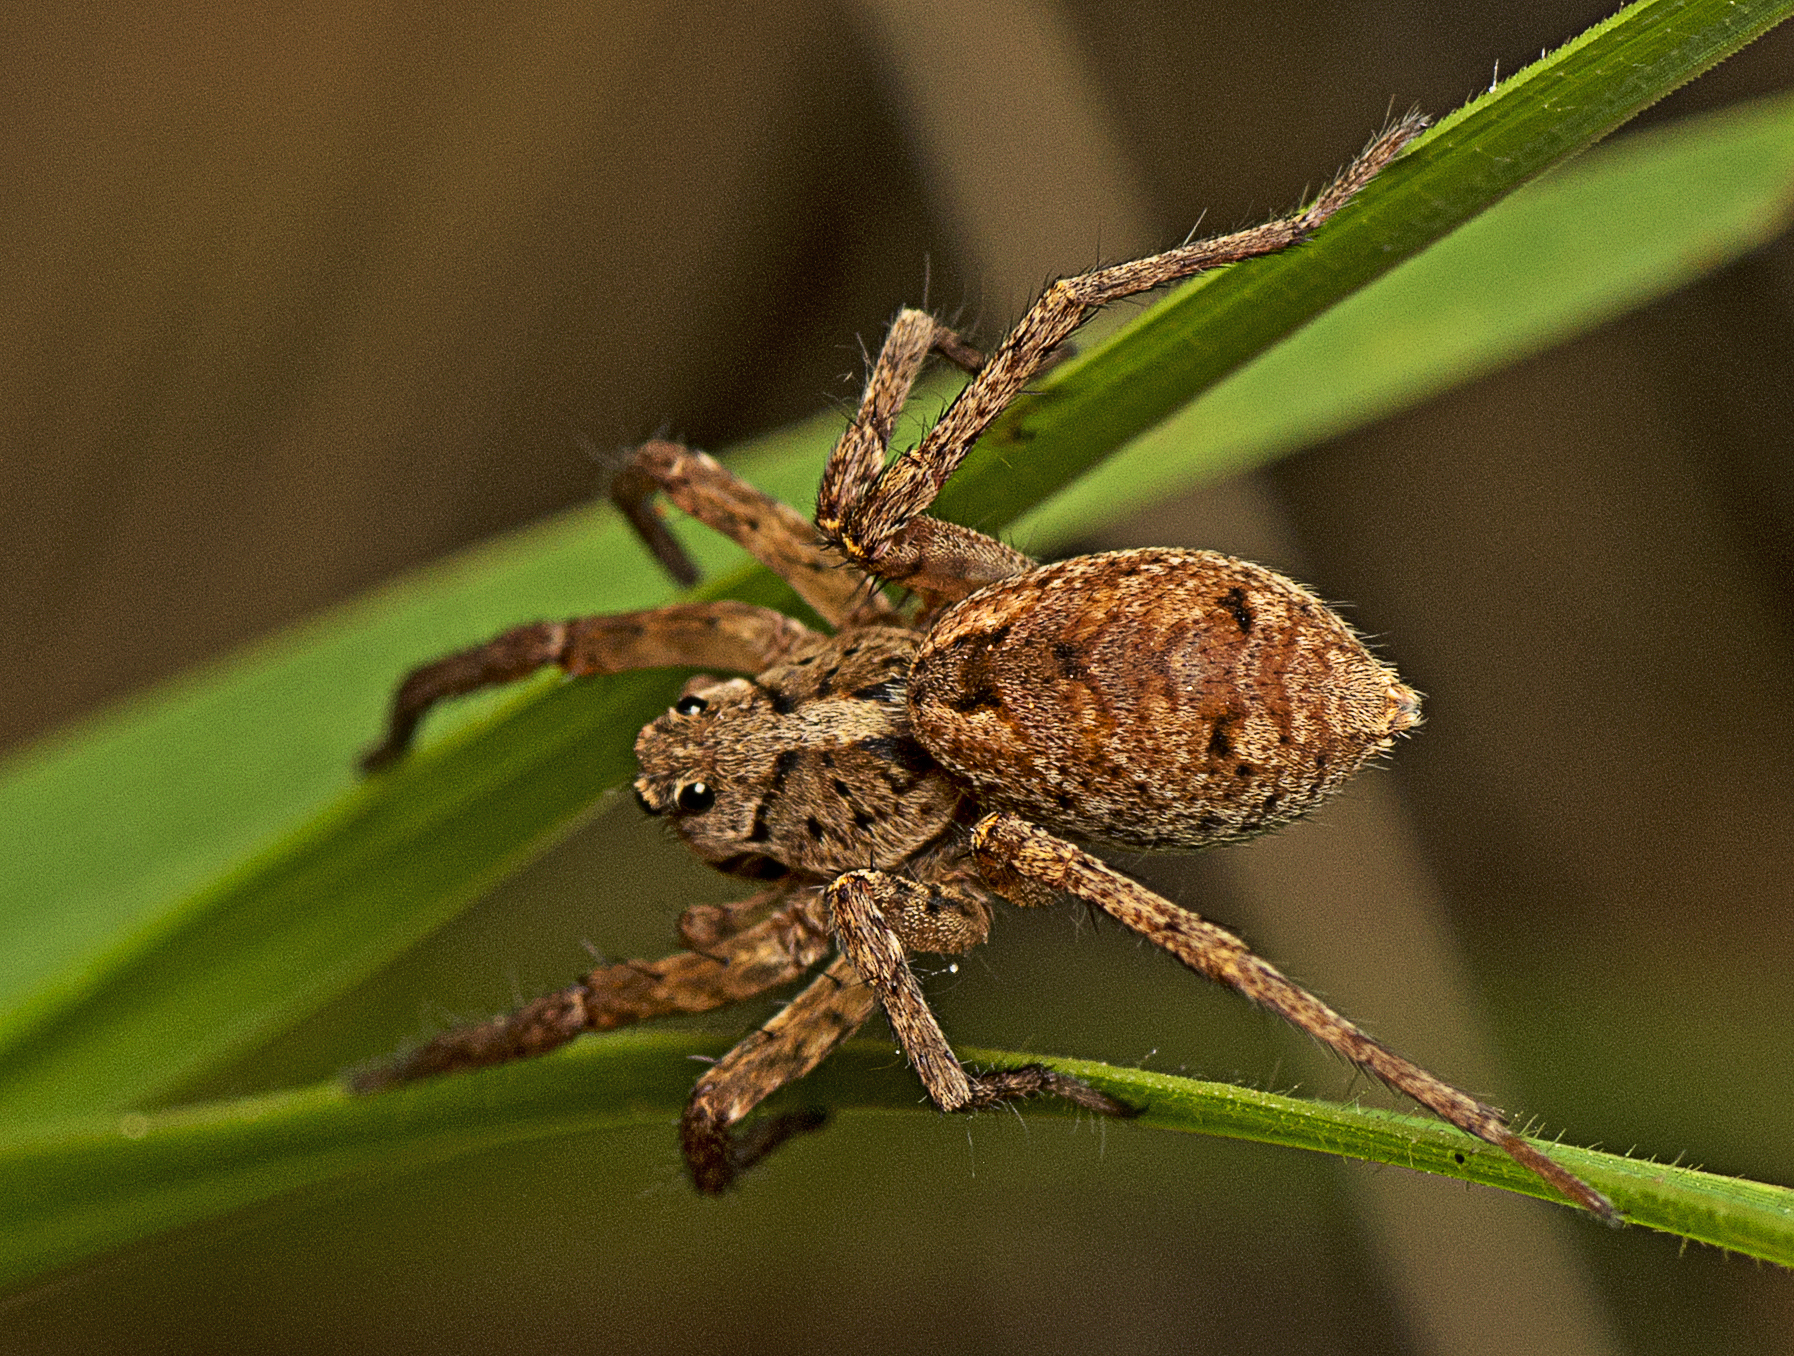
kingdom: Animalia
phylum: Arthropoda
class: Arachnida
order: Araneae
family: Lycosidae
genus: Venator
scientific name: Venator spenceri
